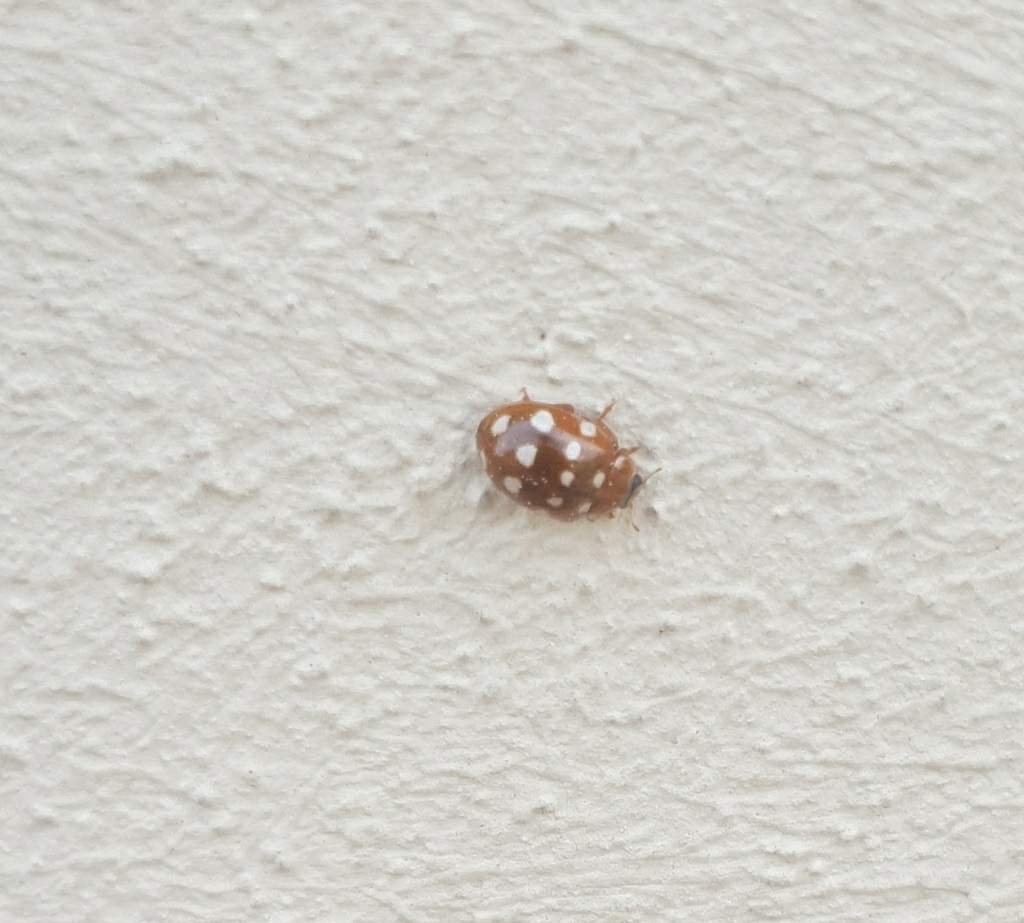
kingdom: Animalia
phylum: Arthropoda
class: Insecta
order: Coleoptera
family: Coccinellidae
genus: Calvia
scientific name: Calvia quatuordecimguttata
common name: Cream-spot ladybird
